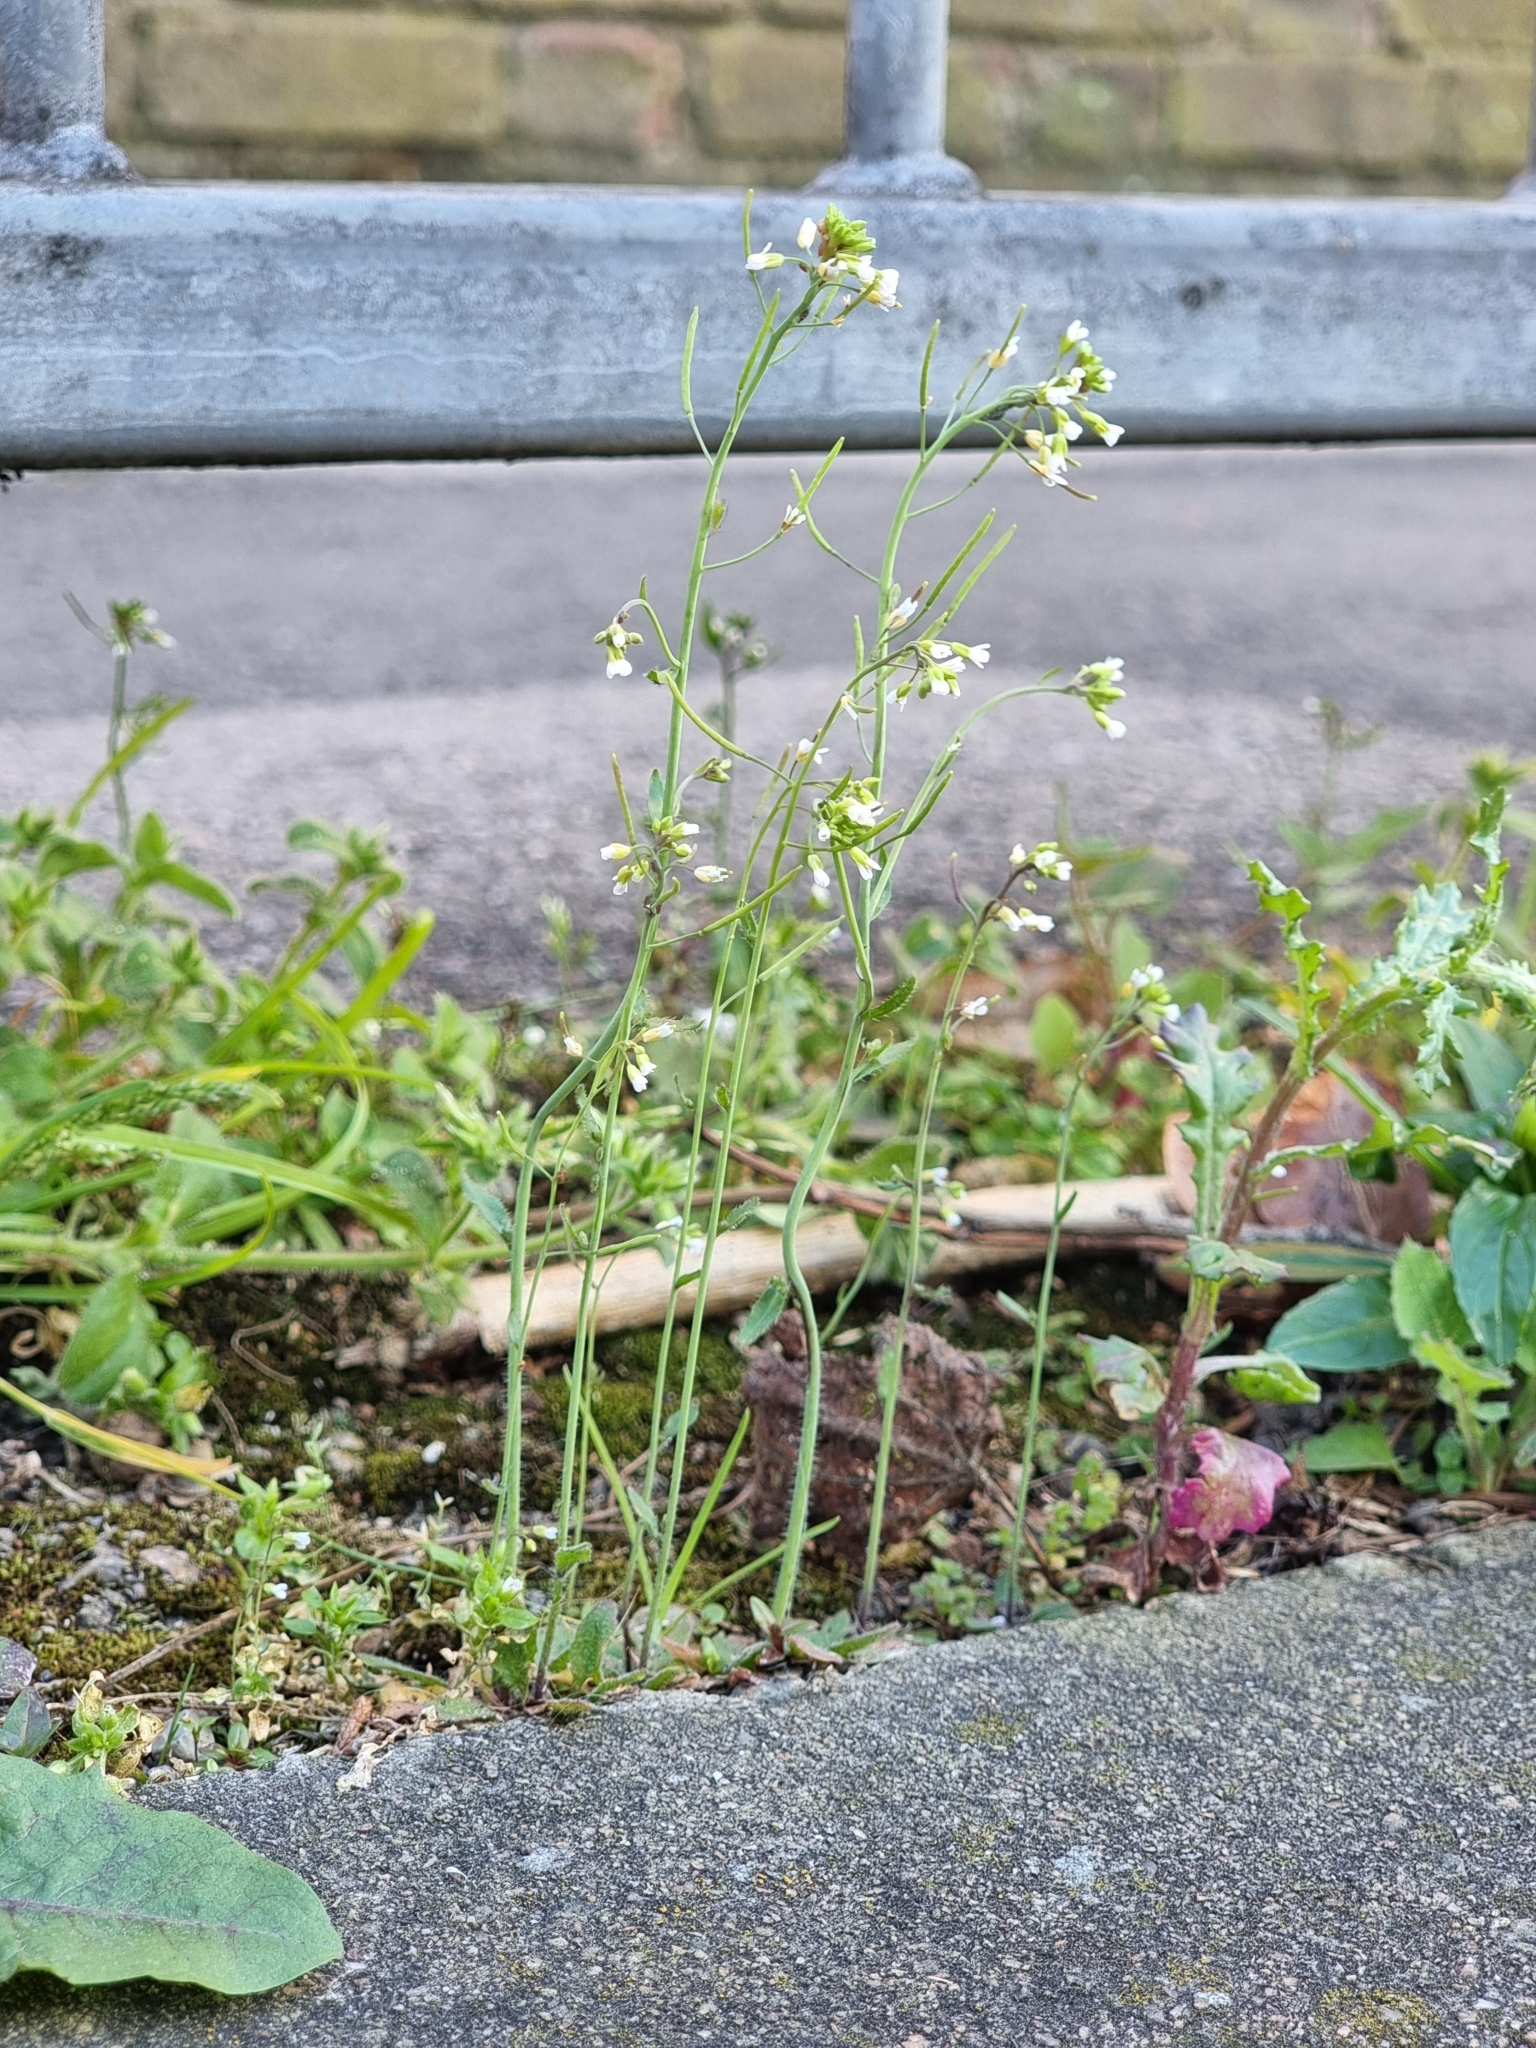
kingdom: Plantae
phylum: Tracheophyta
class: Magnoliopsida
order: Brassicales
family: Brassicaceae
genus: Arabidopsis
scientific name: Arabidopsis thaliana
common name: Thale cress
